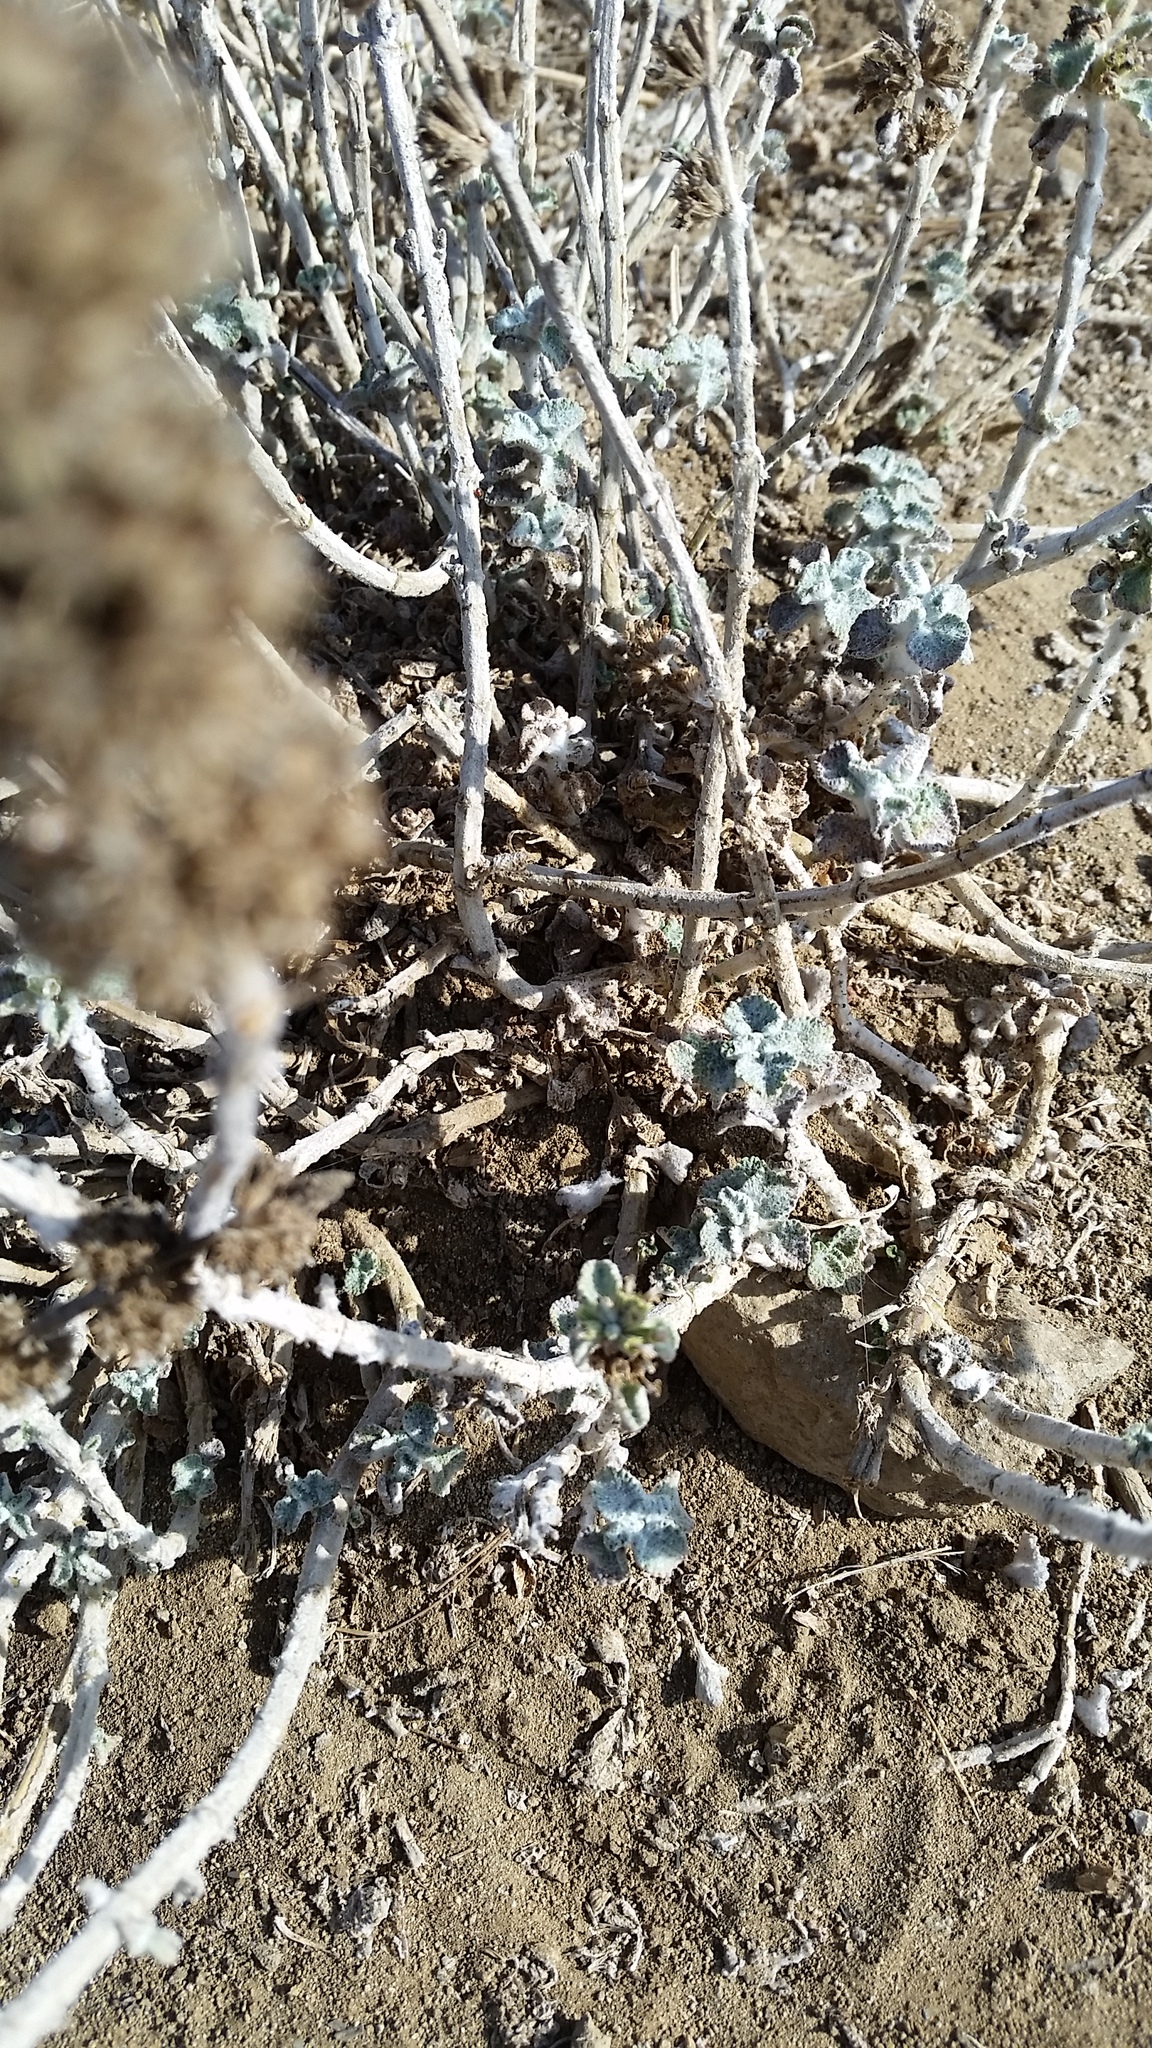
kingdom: Plantae
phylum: Tracheophyta
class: Magnoliopsida
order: Lamiales
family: Lamiaceae
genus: Marrubium
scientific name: Marrubium vulgare
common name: Horehound
